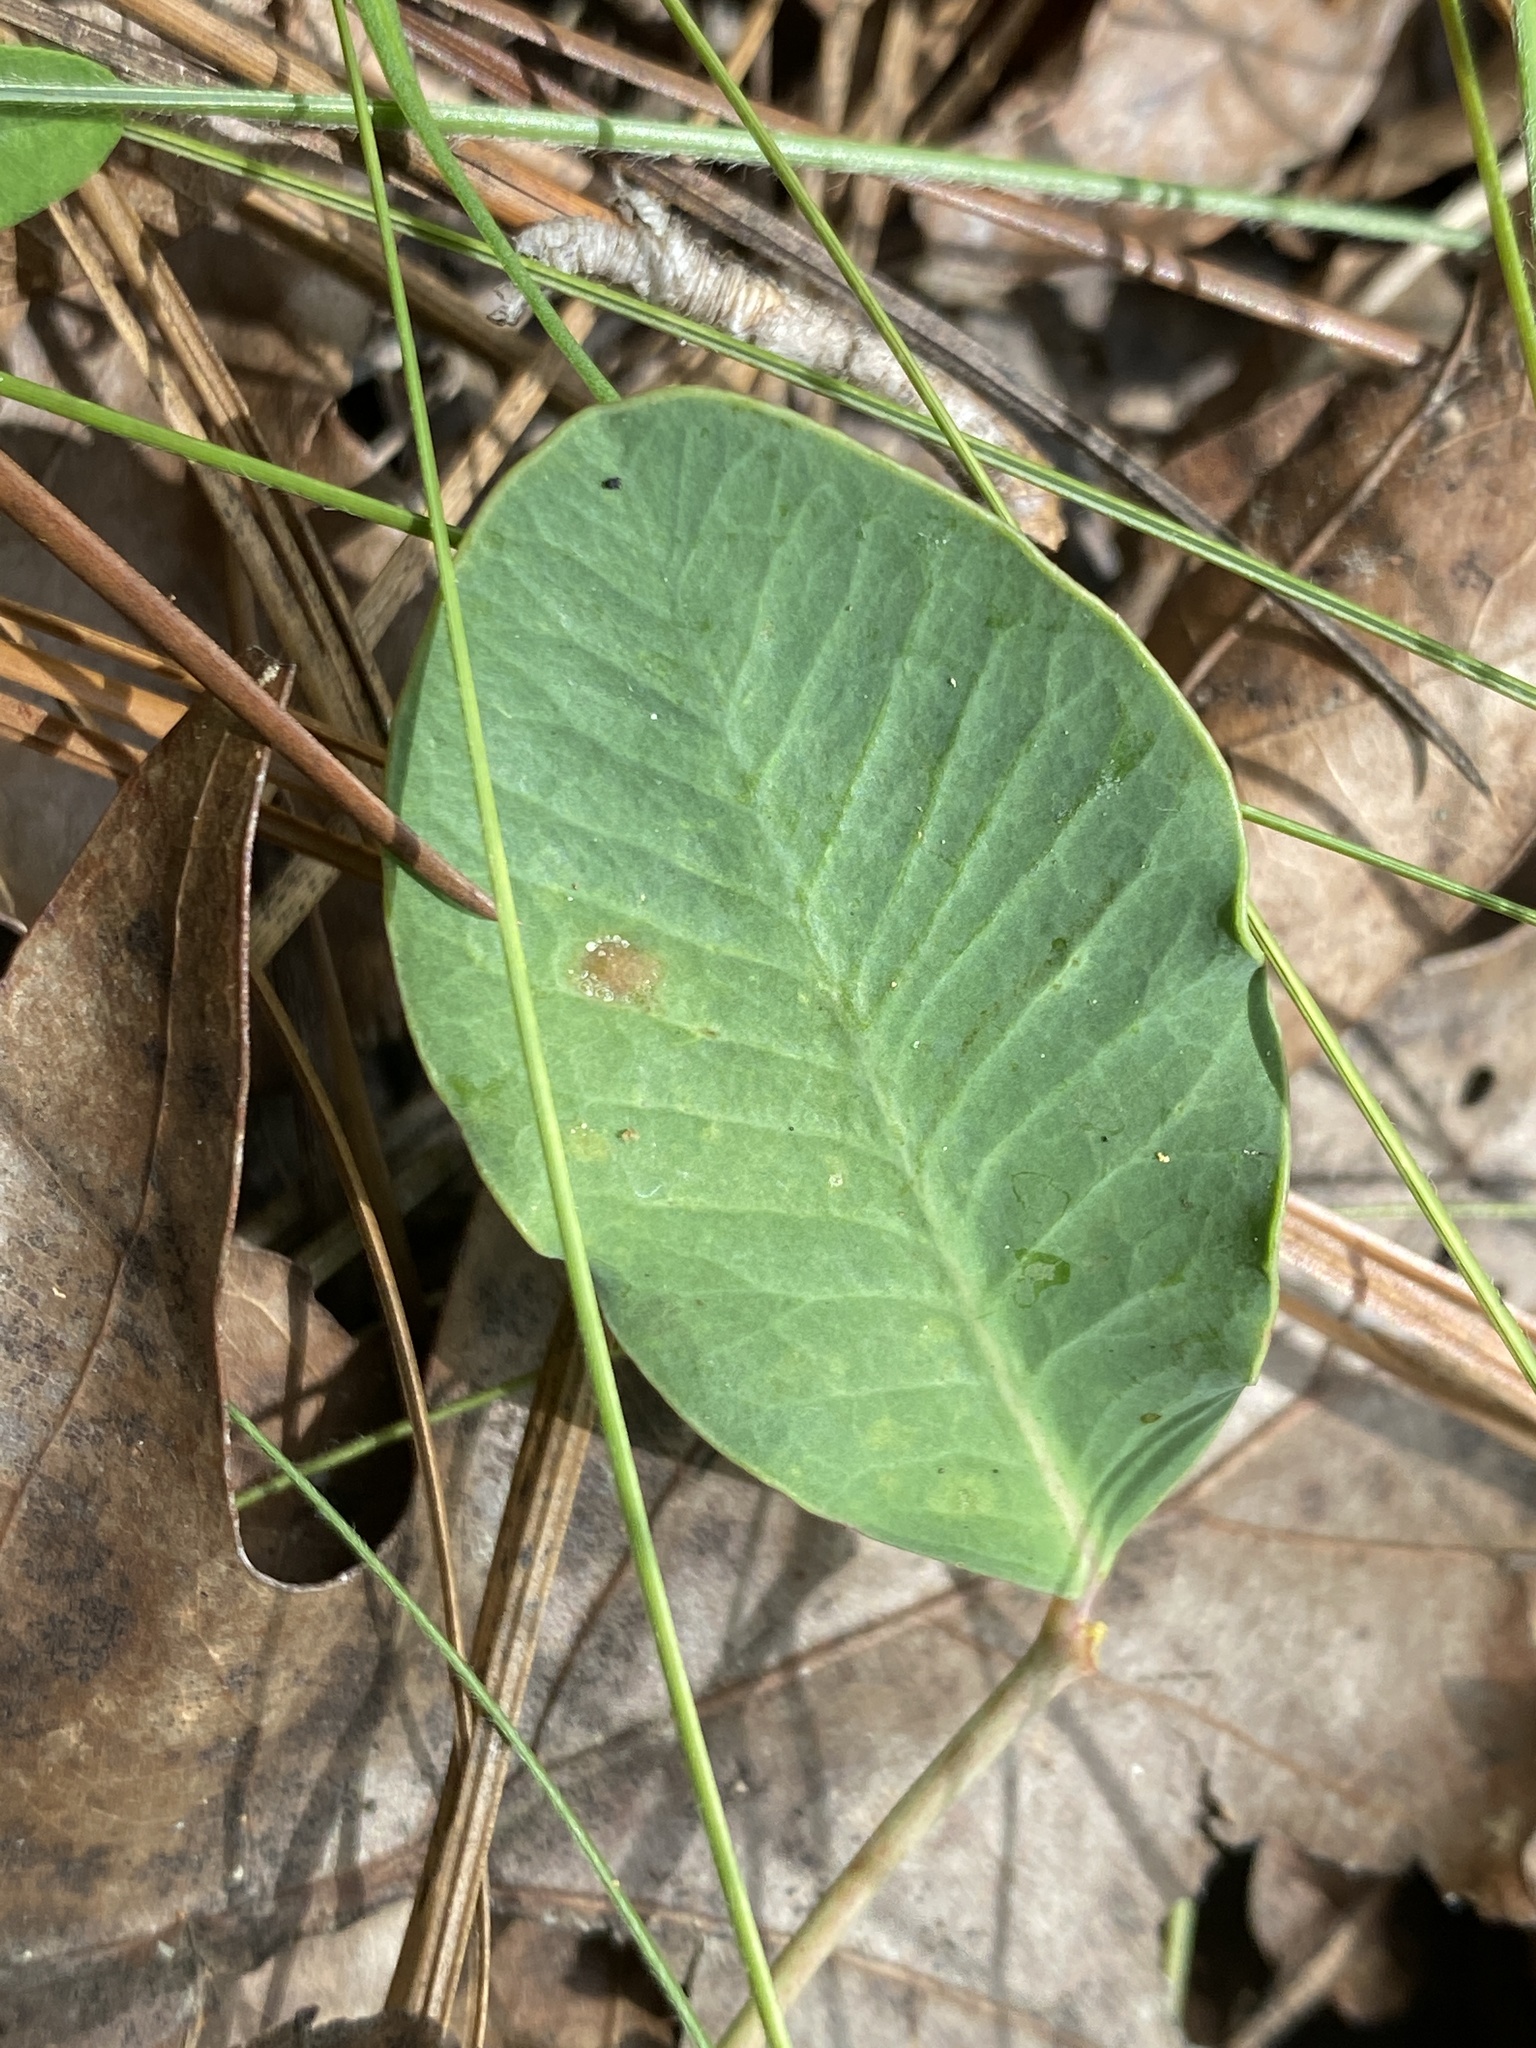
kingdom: Plantae
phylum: Tracheophyta
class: Magnoliopsida
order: Malpighiales
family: Euphorbiaceae
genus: Euphorbia
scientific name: Euphorbia ipecacuanhae
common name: Carolina ipecac
